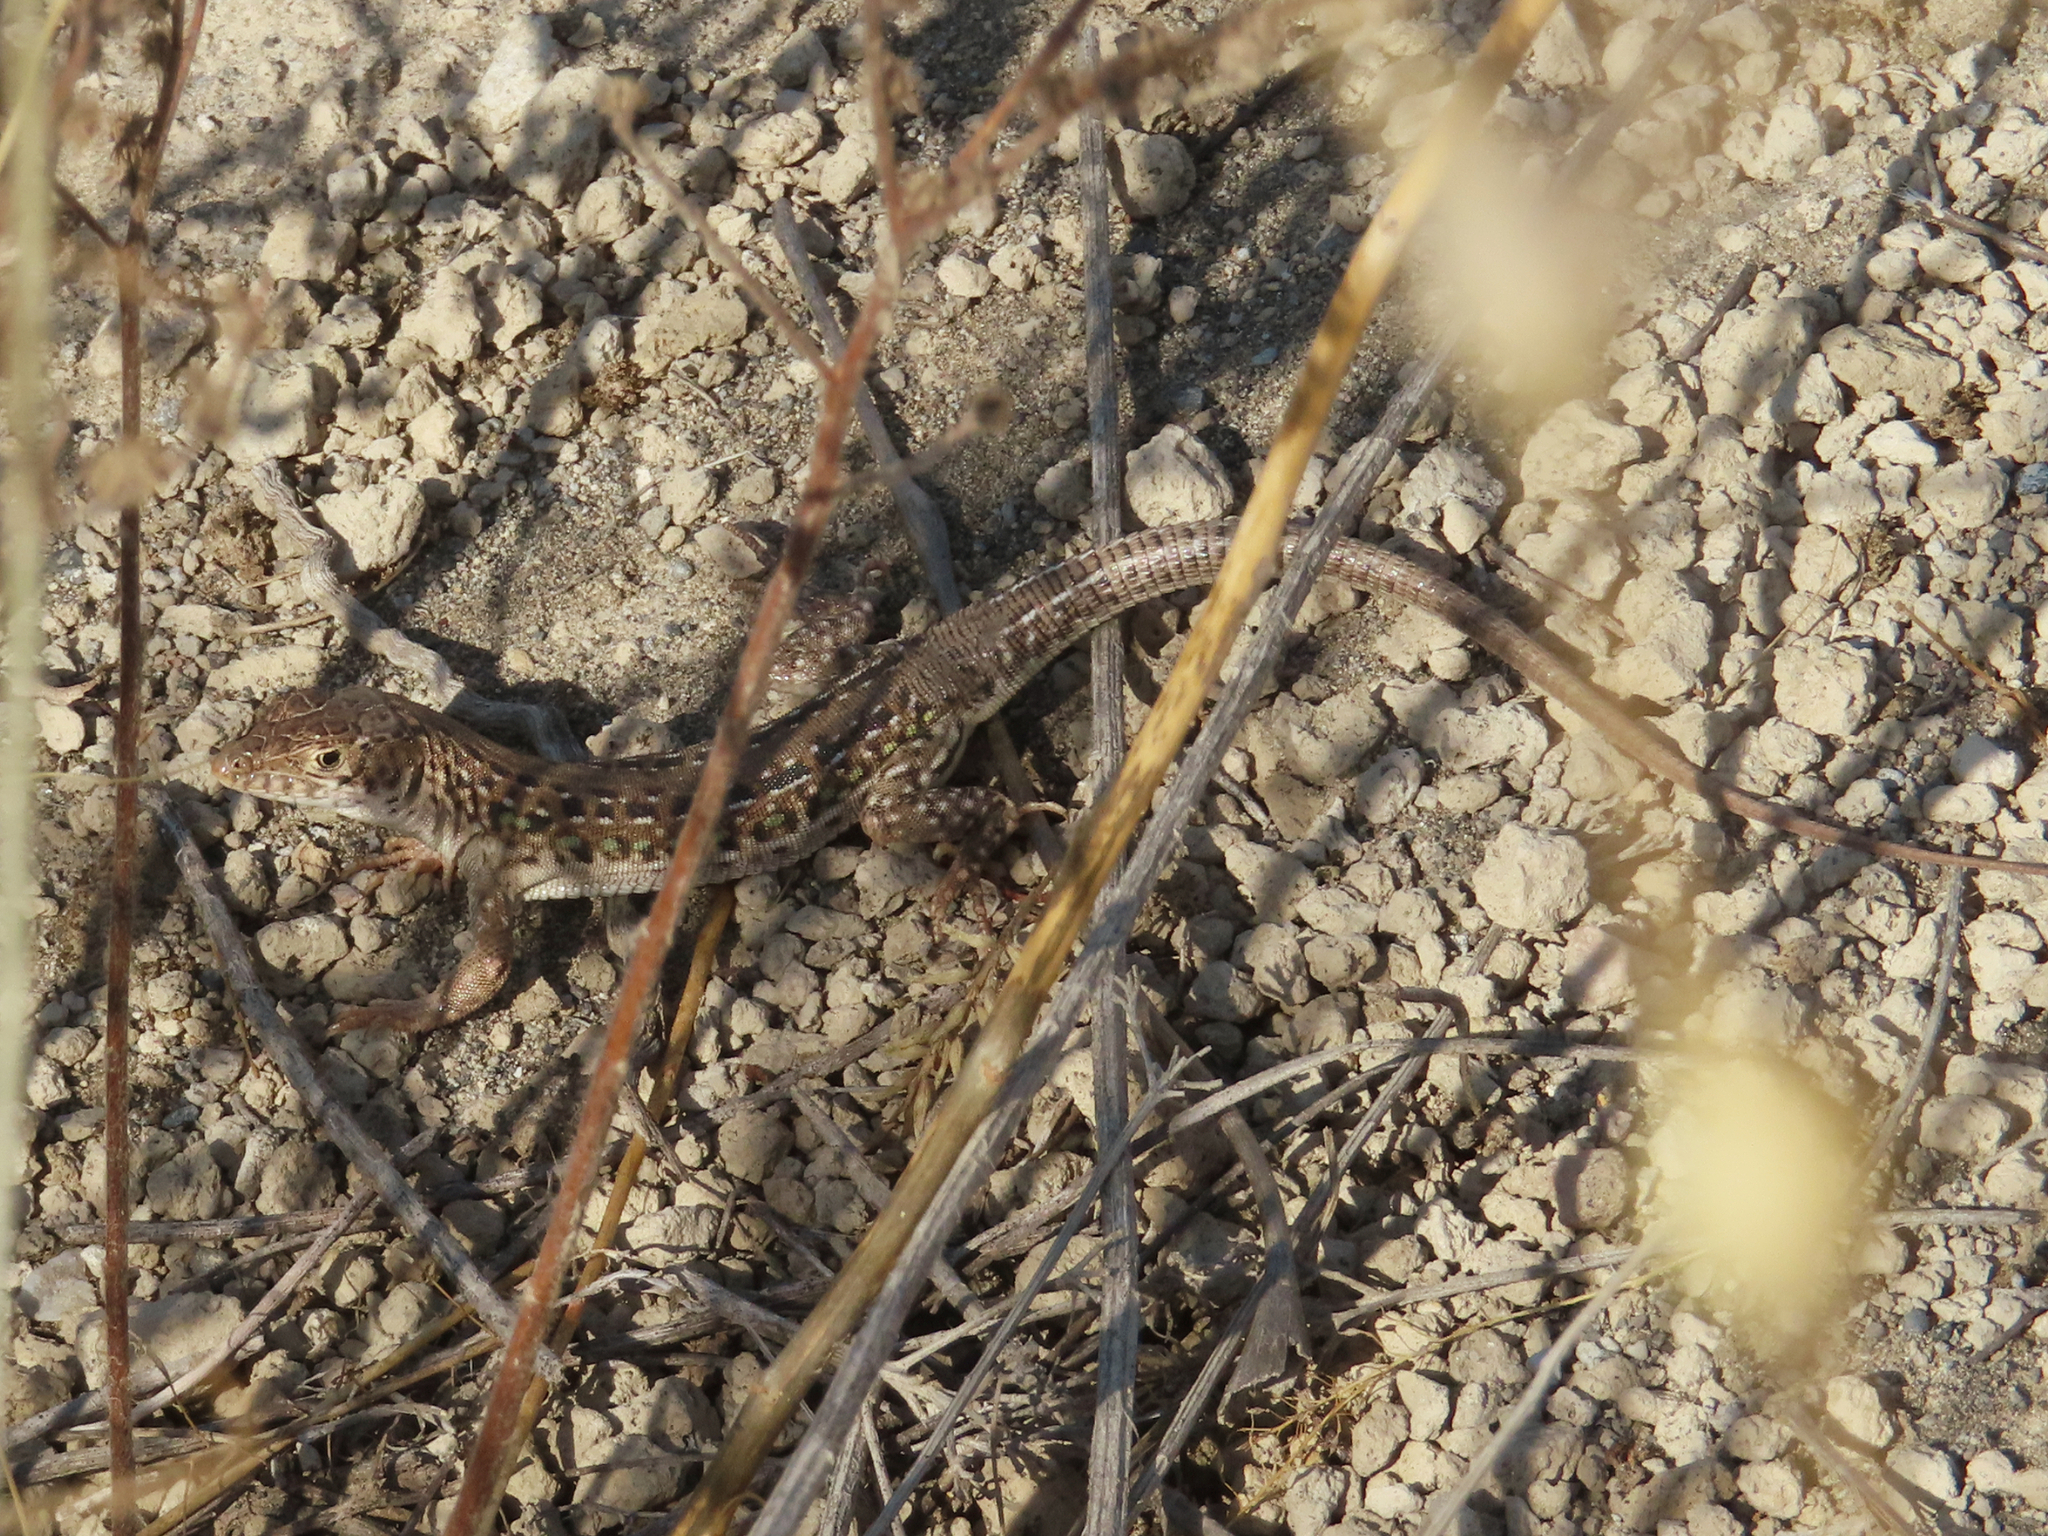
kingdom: Animalia
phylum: Chordata
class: Squamata
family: Lacertidae
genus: Eremias
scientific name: Eremias strauchi
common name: Strauch's racerunner
